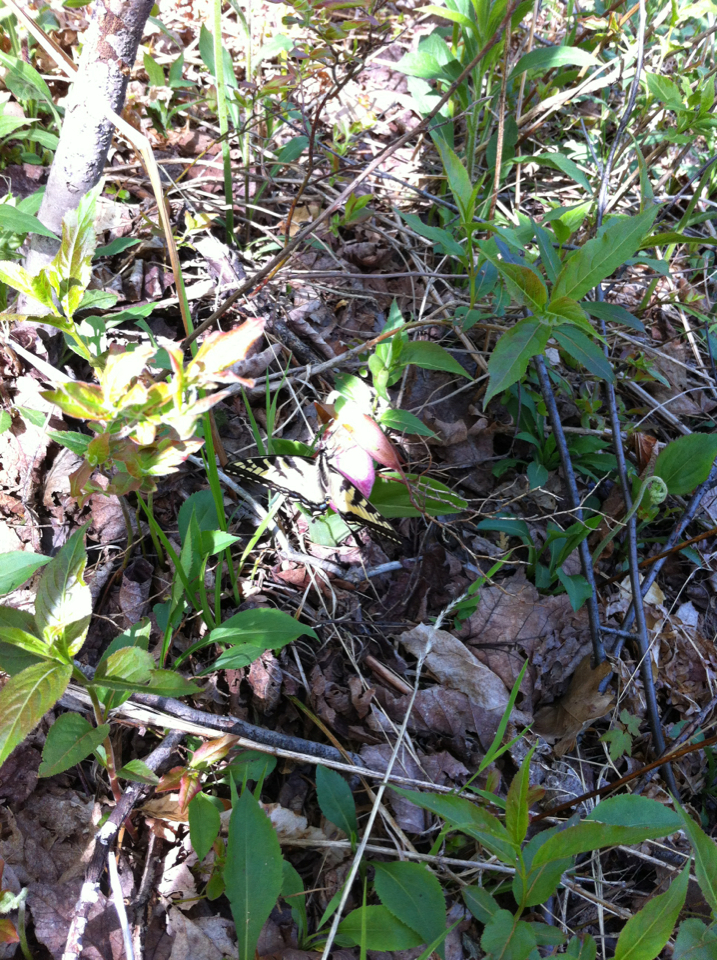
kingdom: Animalia
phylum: Arthropoda
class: Insecta
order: Lepidoptera
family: Papilionidae
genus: Papilio
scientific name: Papilio canadensis
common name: Canadian tiger swallowtail
